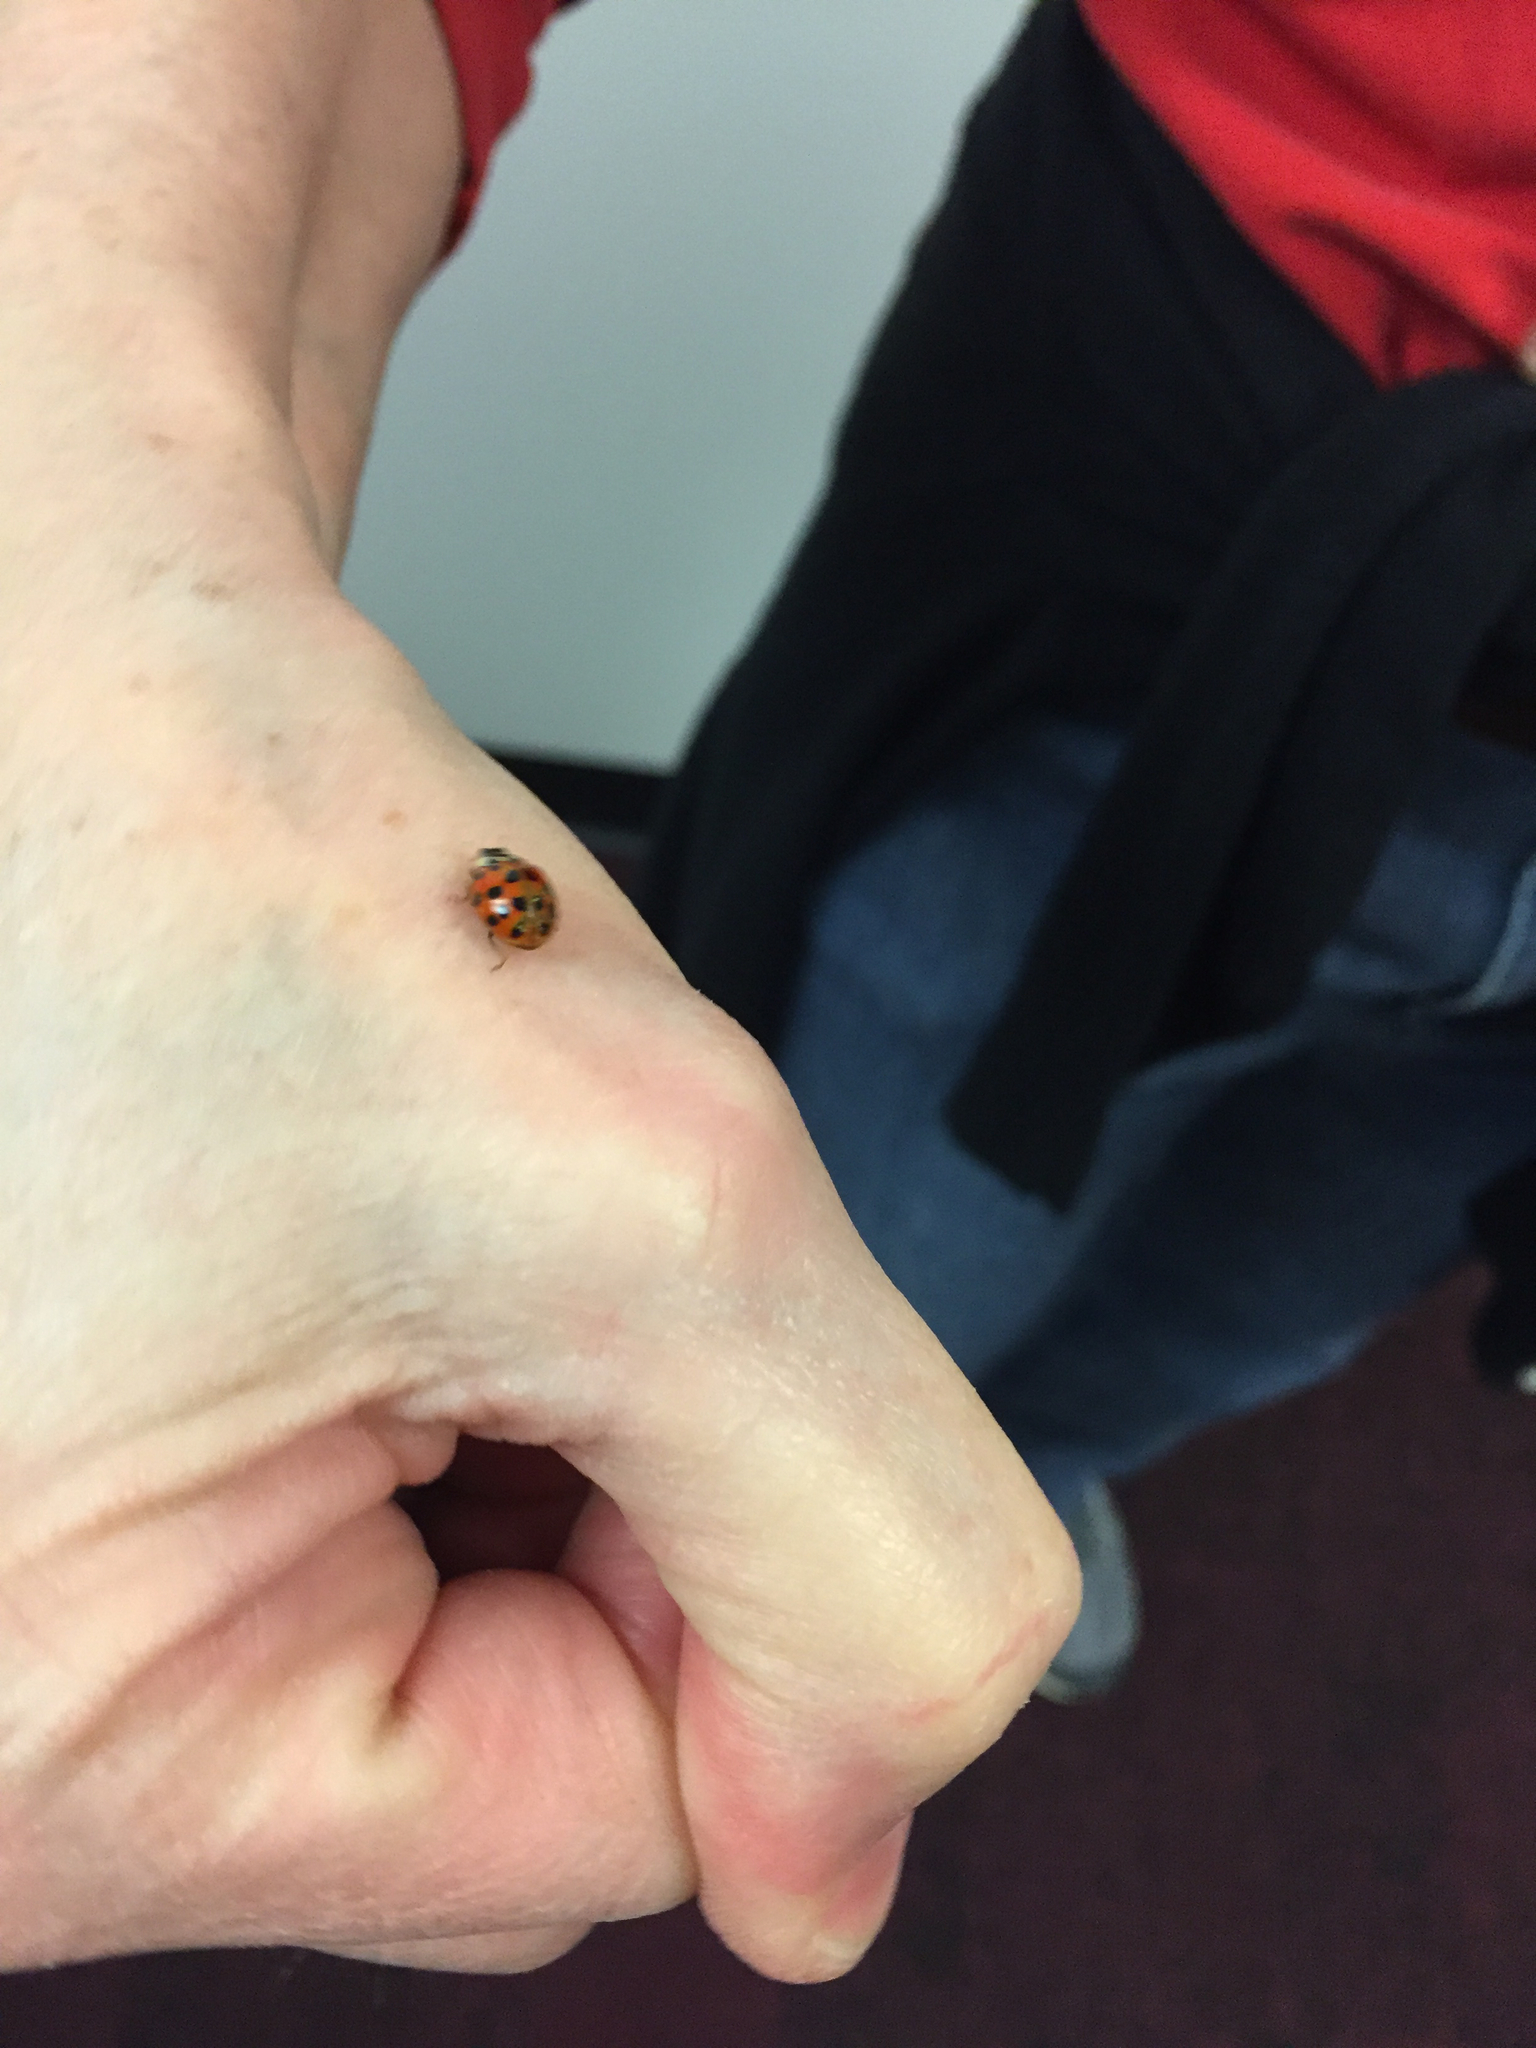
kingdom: Animalia
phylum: Arthropoda
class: Insecta
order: Coleoptera
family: Coccinellidae
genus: Harmonia
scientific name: Harmonia axyridis
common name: Harlequin ladybird
